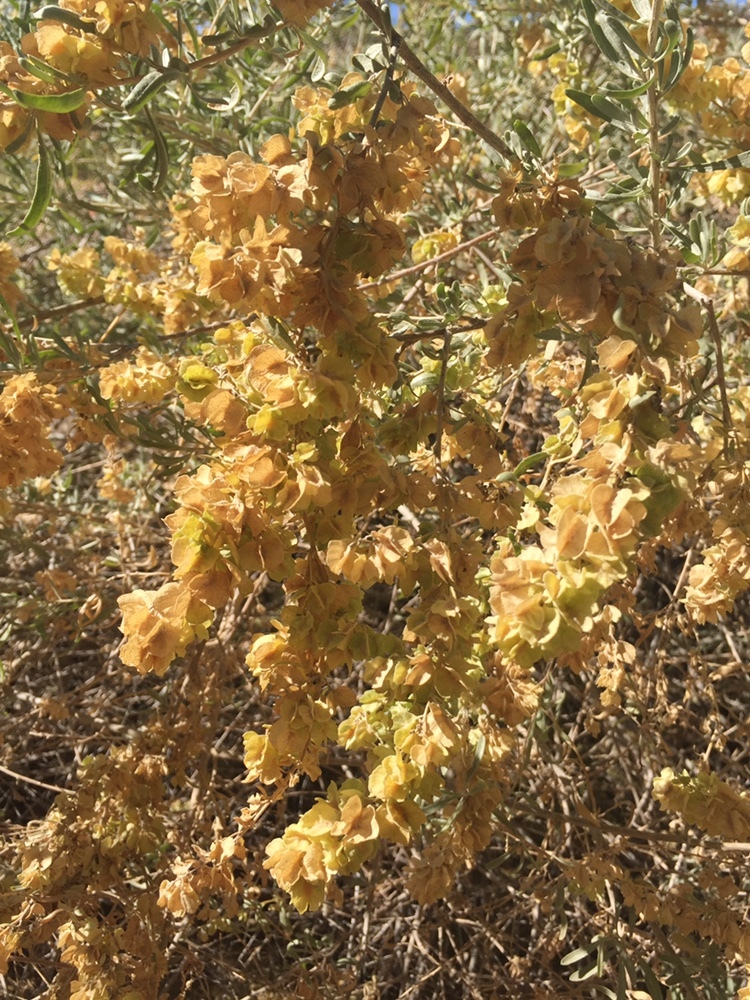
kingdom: Plantae
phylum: Tracheophyta
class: Magnoliopsida
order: Caryophyllales
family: Amaranthaceae
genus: Atriplex
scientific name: Atriplex canescens
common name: Four-wing saltbush
